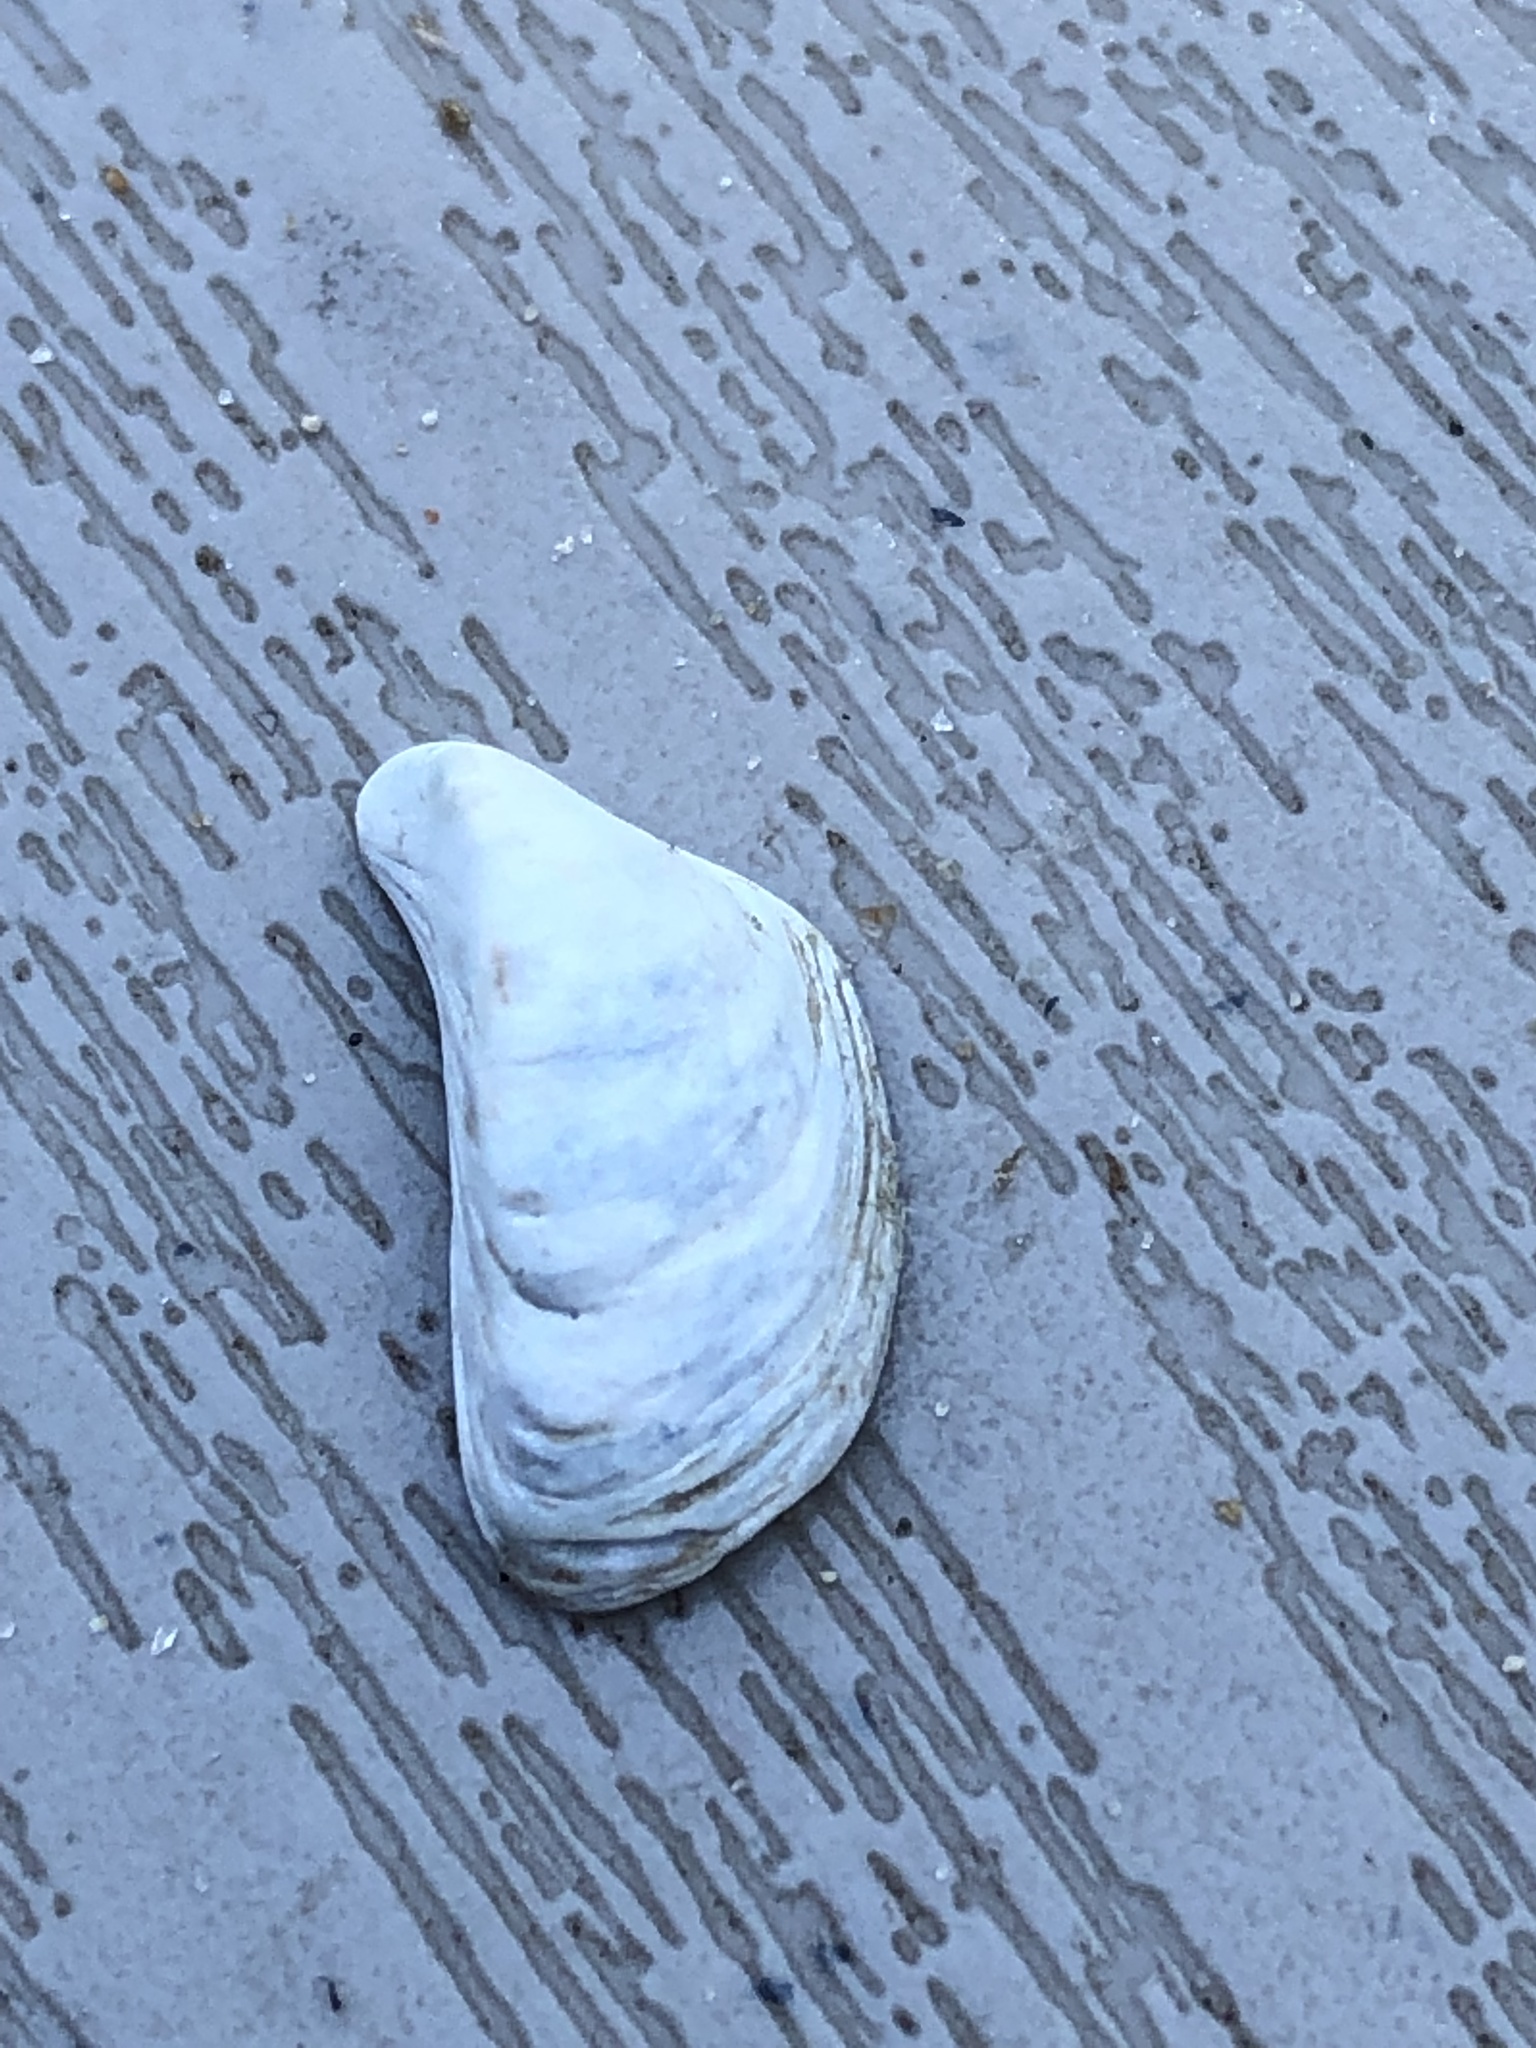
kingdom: Animalia
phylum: Mollusca
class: Bivalvia
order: Myida
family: Dreissenidae
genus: Dreissena
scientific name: Dreissena bugensis
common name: Quagga mussel
